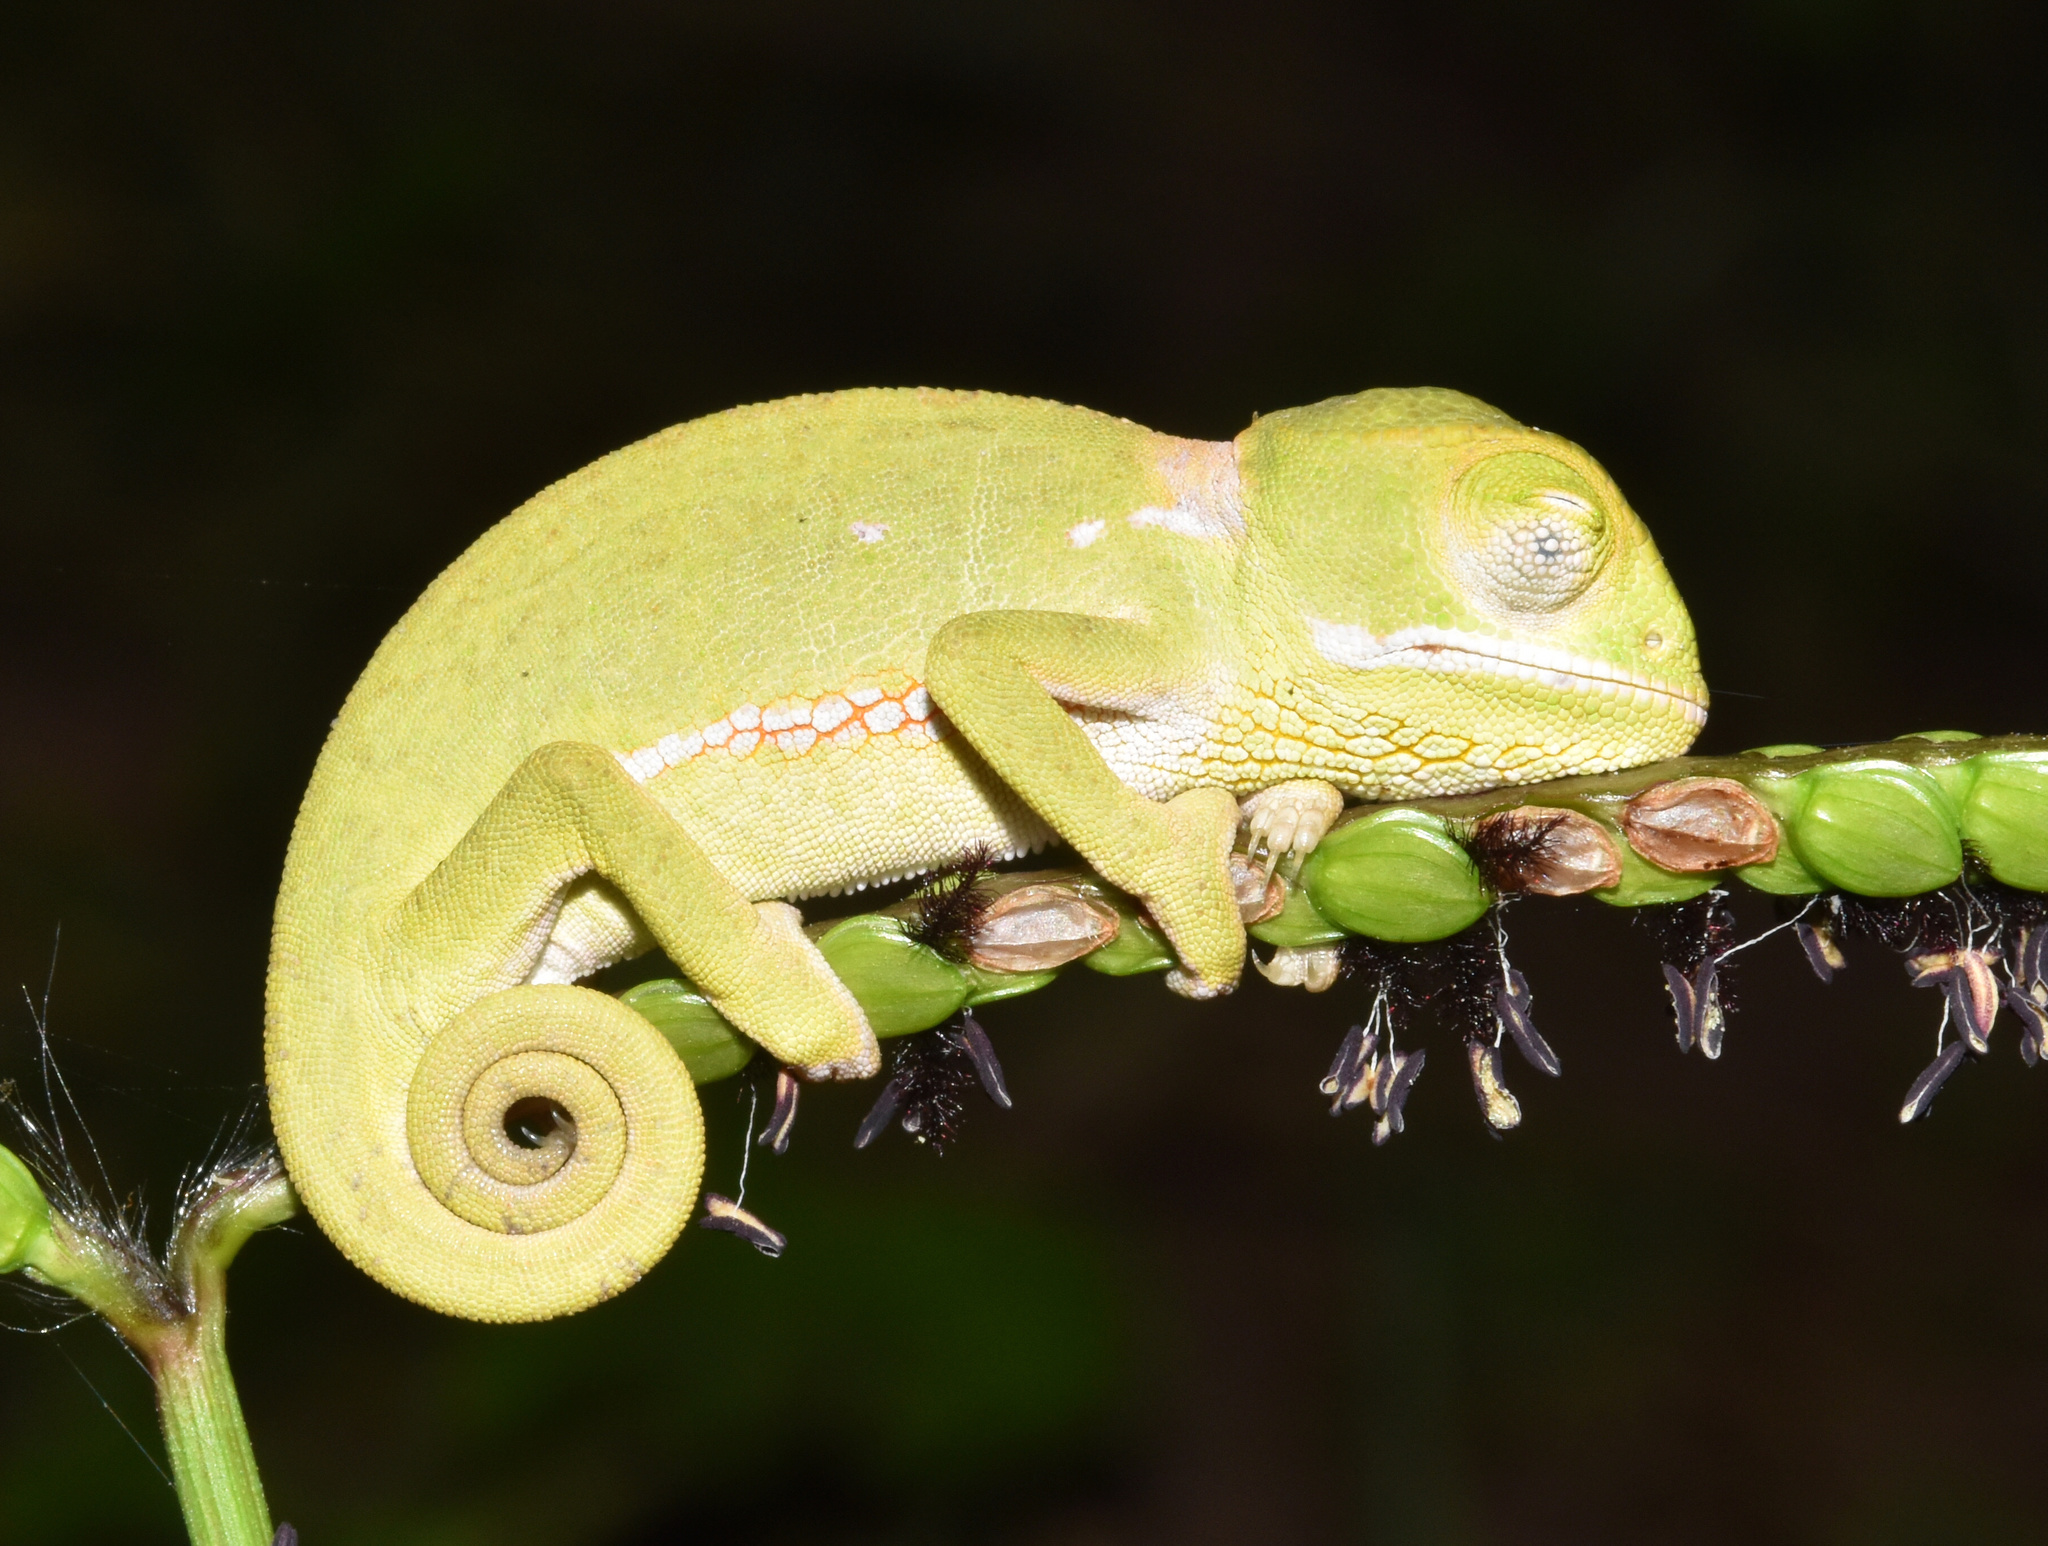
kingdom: Animalia
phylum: Chordata
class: Squamata
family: Chamaeleonidae
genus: Chamaeleo
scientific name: Chamaeleo dilepis
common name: Flapneck chameleon
